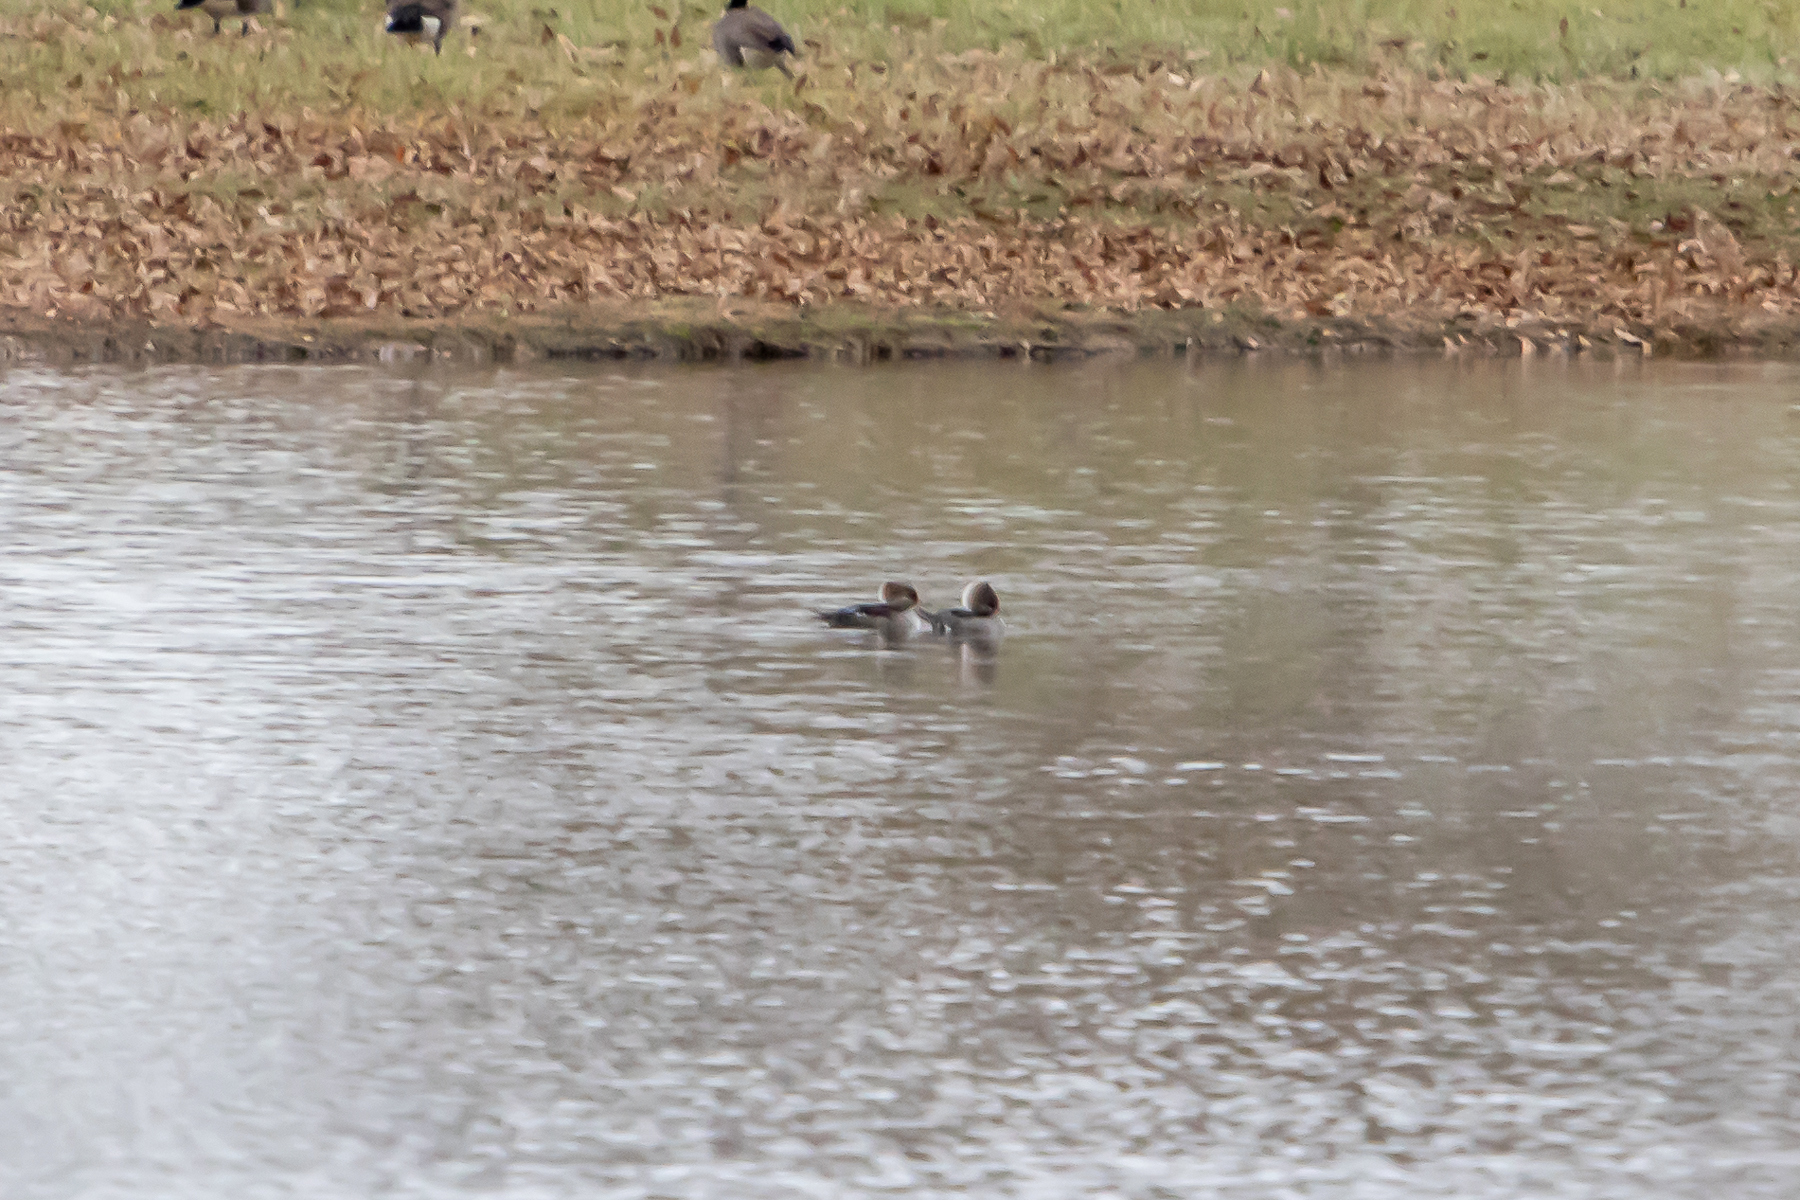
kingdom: Animalia
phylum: Chordata
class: Aves
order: Anseriformes
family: Anatidae
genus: Lophodytes
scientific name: Lophodytes cucullatus
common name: Hooded merganser
